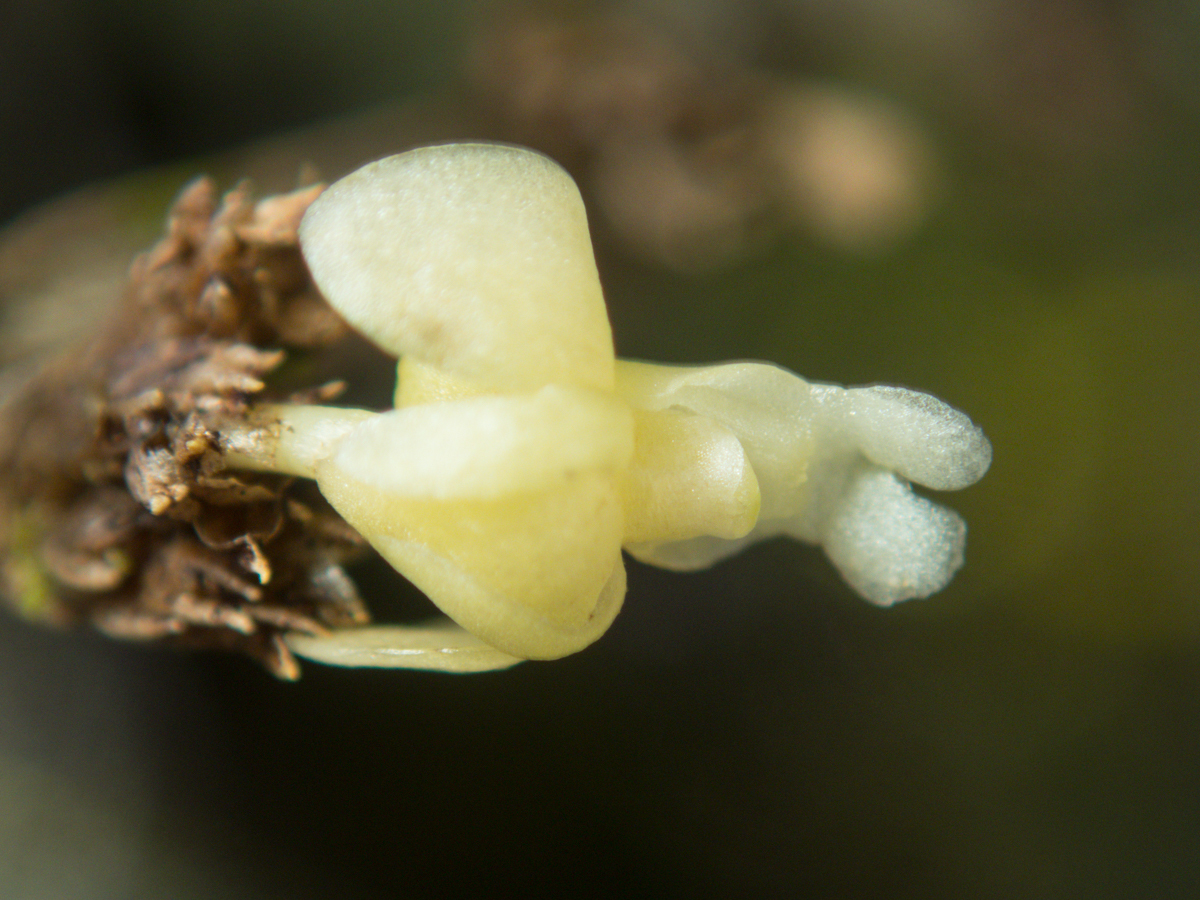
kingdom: Plantae
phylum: Tracheophyta
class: Liliopsida
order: Asparagales
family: Orchidaceae
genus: Dendrobium
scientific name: Dendrobium aloifolium
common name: Aloe-like dendrobium
